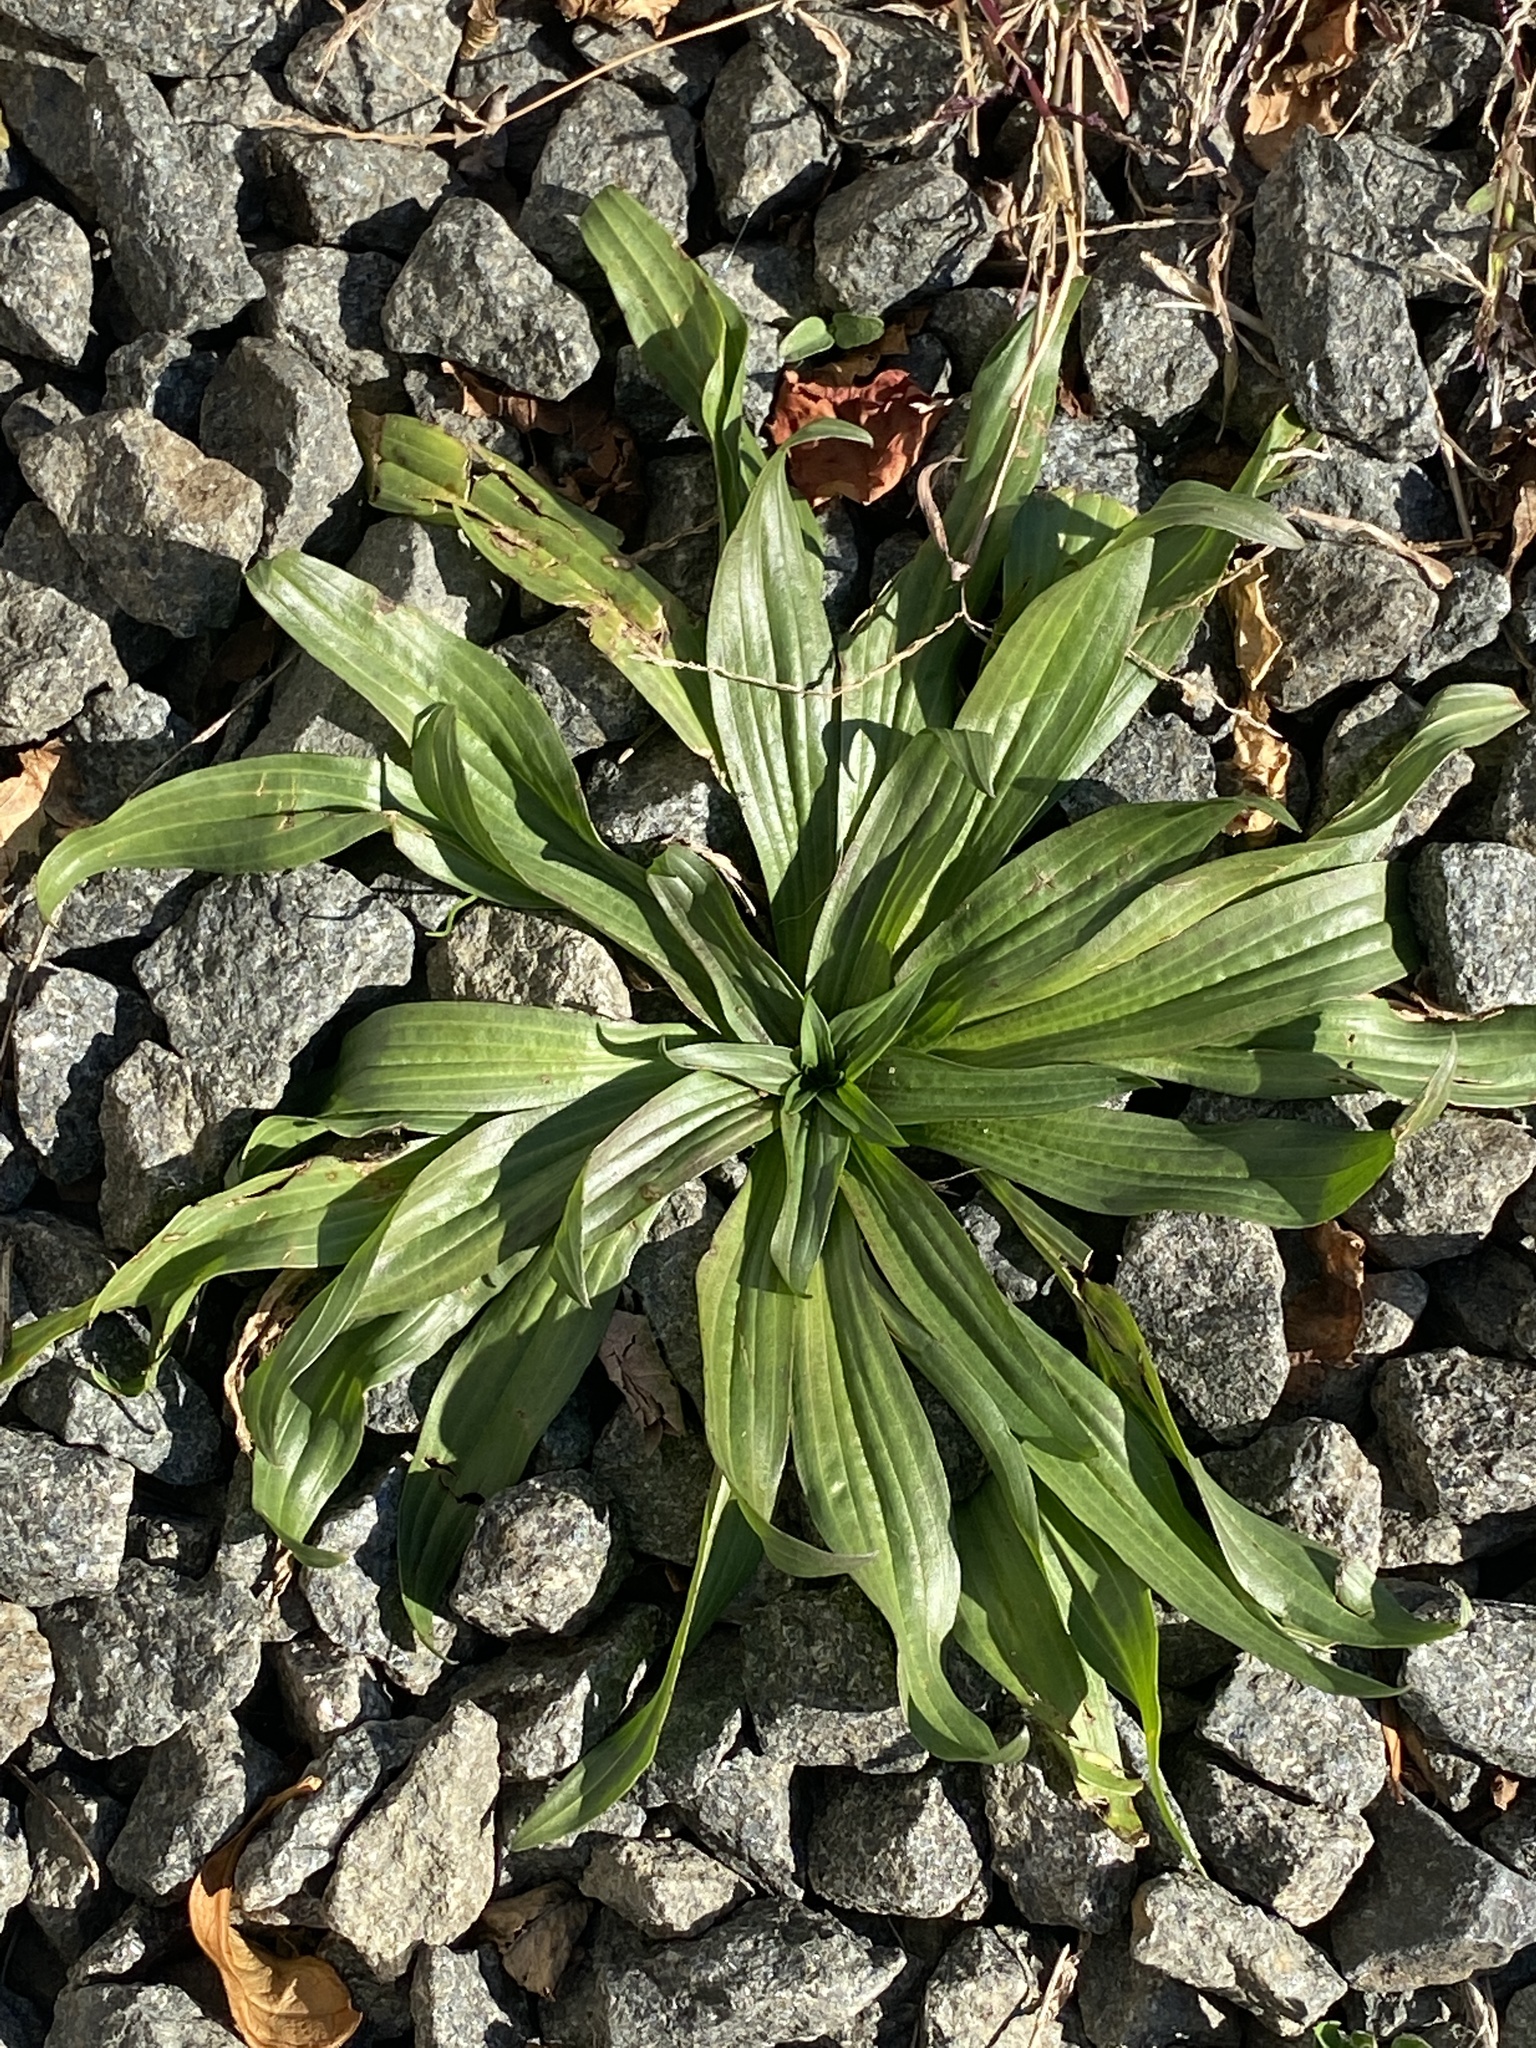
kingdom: Plantae
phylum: Tracheophyta
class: Magnoliopsida
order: Lamiales
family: Plantaginaceae
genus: Plantago
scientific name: Plantago lanceolata
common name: Ribwort plantain
